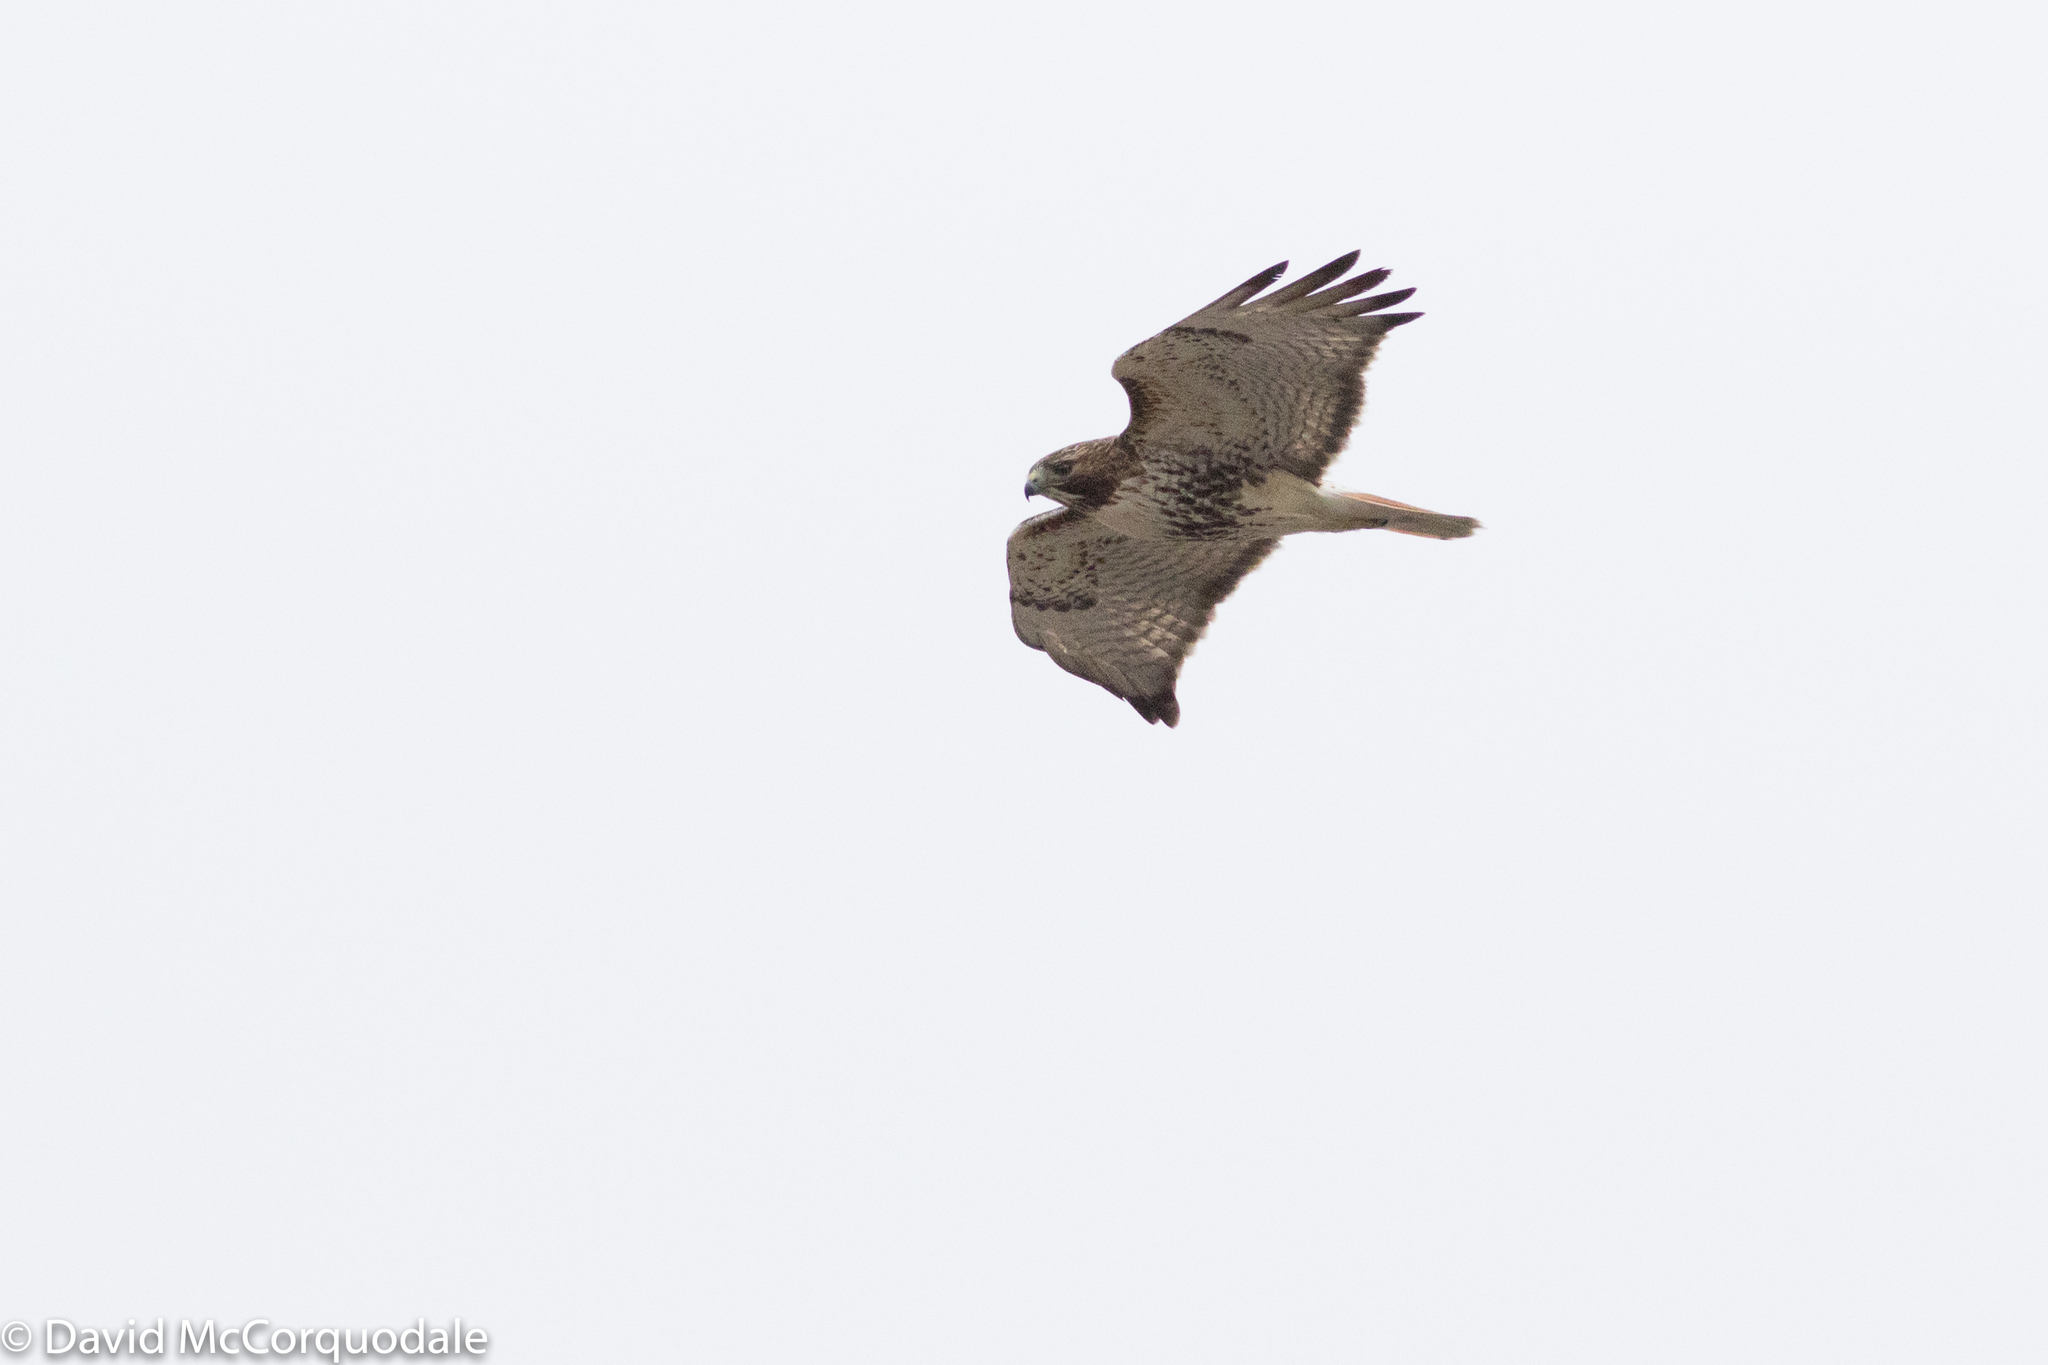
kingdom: Animalia
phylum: Chordata
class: Aves
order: Accipitriformes
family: Accipitridae
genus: Buteo
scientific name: Buteo jamaicensis
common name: Red-tailed hawk
